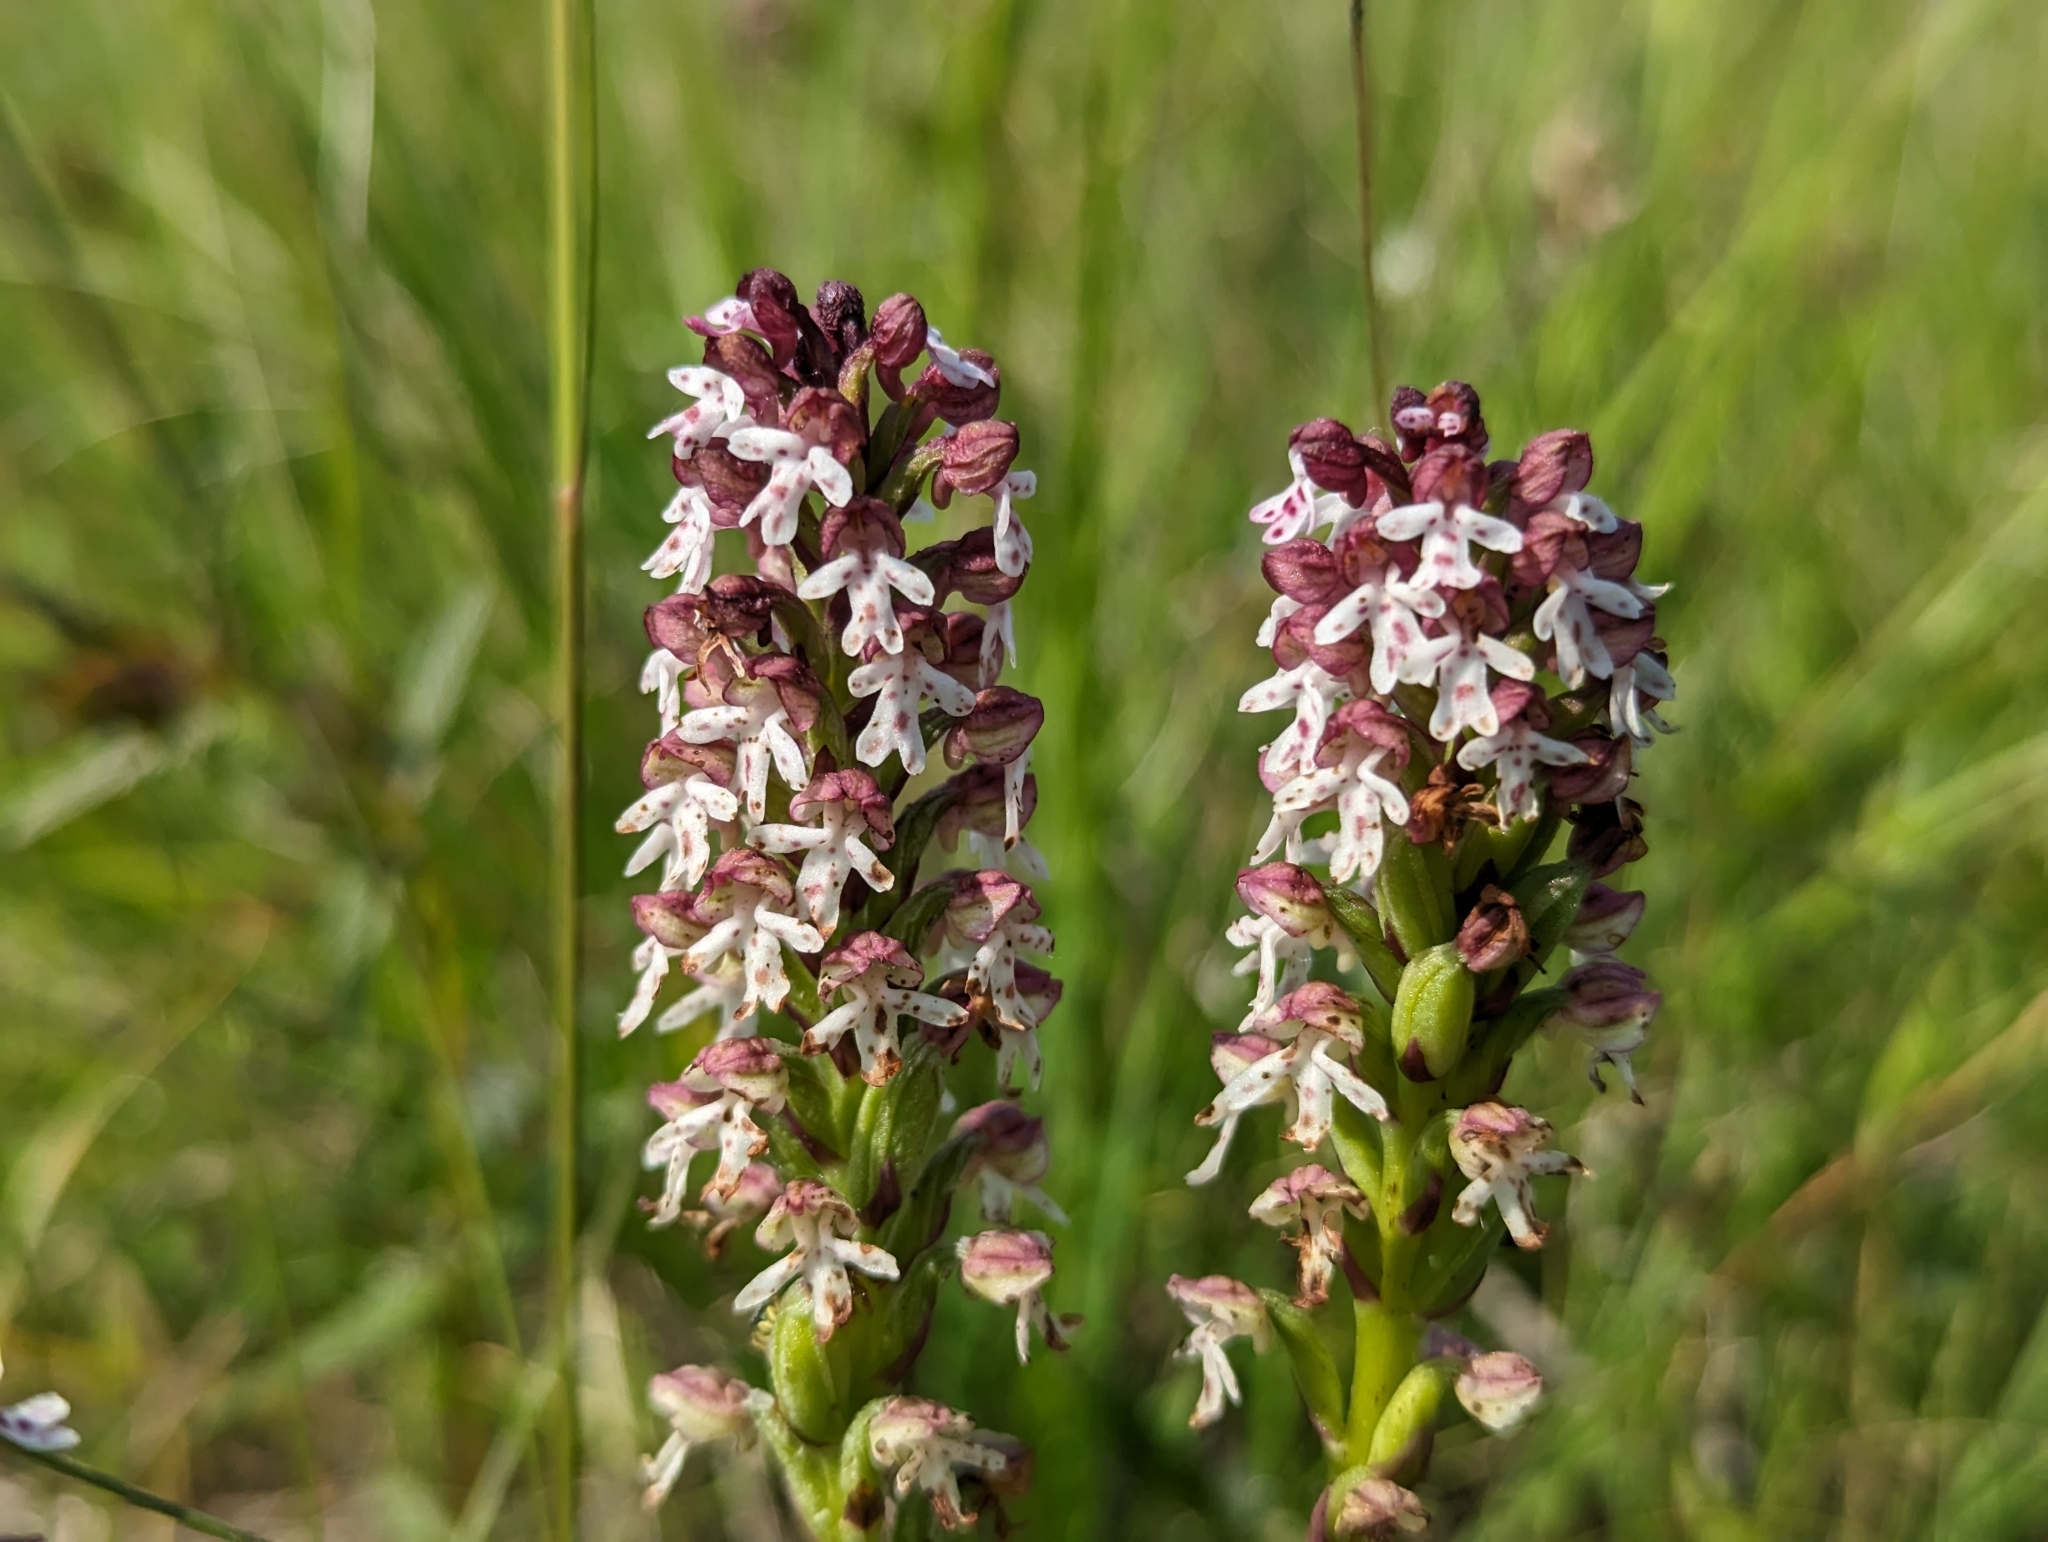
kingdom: Plantae
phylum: Tracheophyta
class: Liliopsida
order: Asparagales
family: Orchidaceae
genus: Neotinea
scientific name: Neotinea ustulata
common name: Burnt orchid
